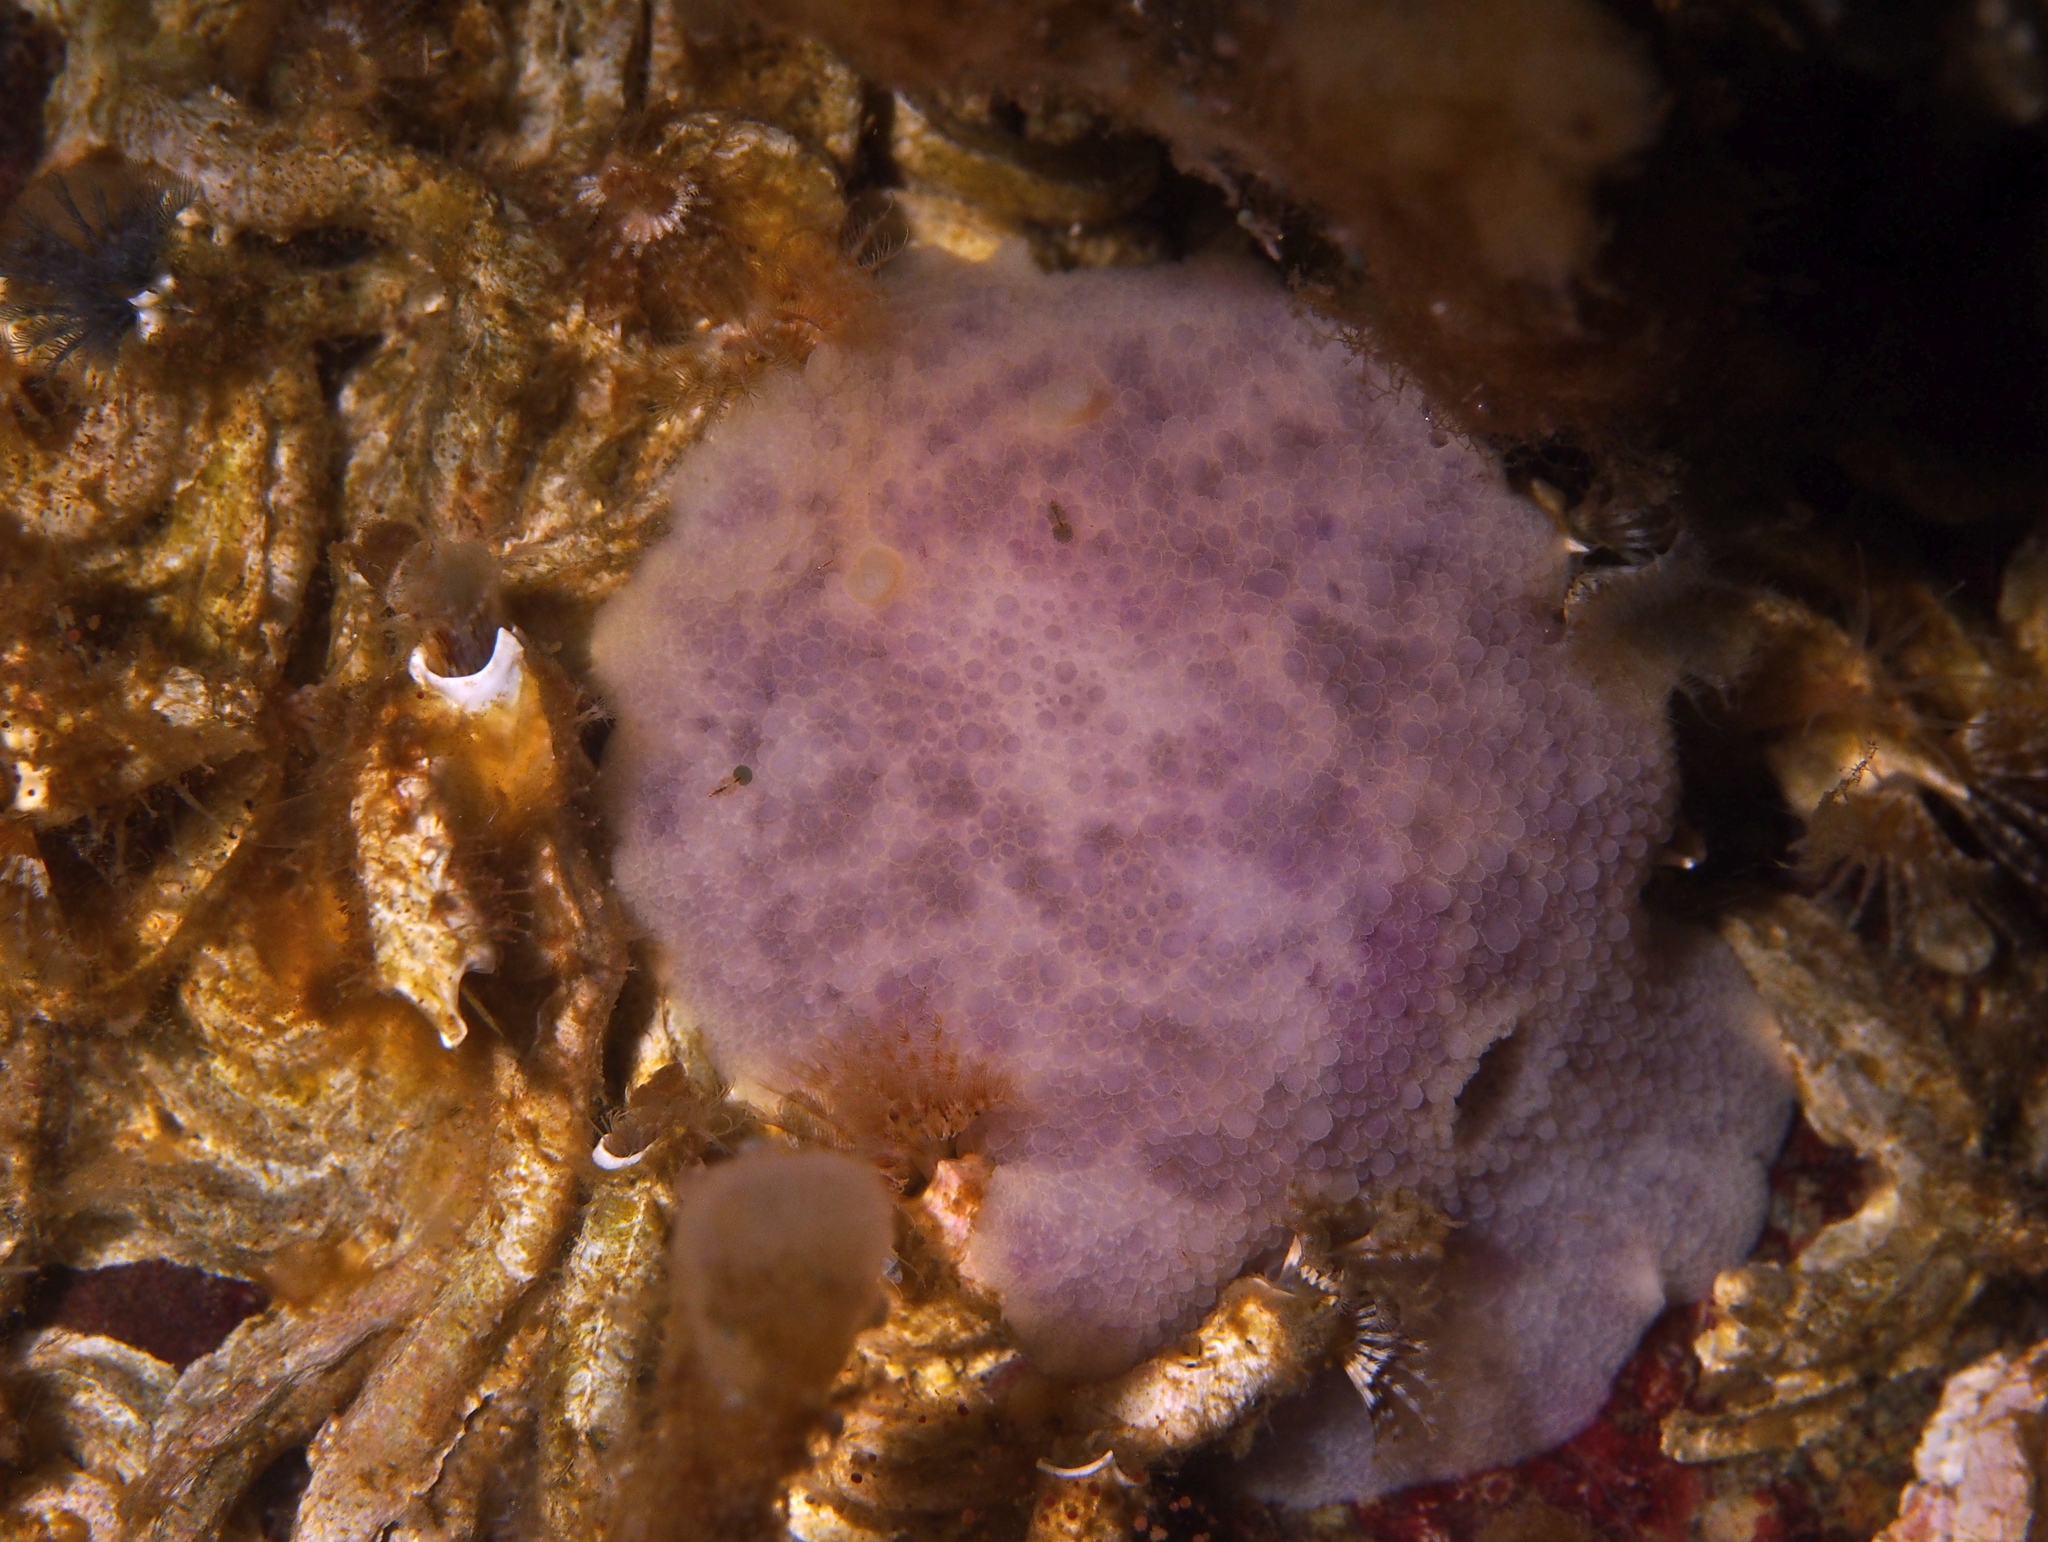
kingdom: Animalia
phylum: Mollusca
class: Gastropoda
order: Nudibranchia
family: Dorididae
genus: Doris
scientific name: Doris pseudoargus
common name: Sea lemon
